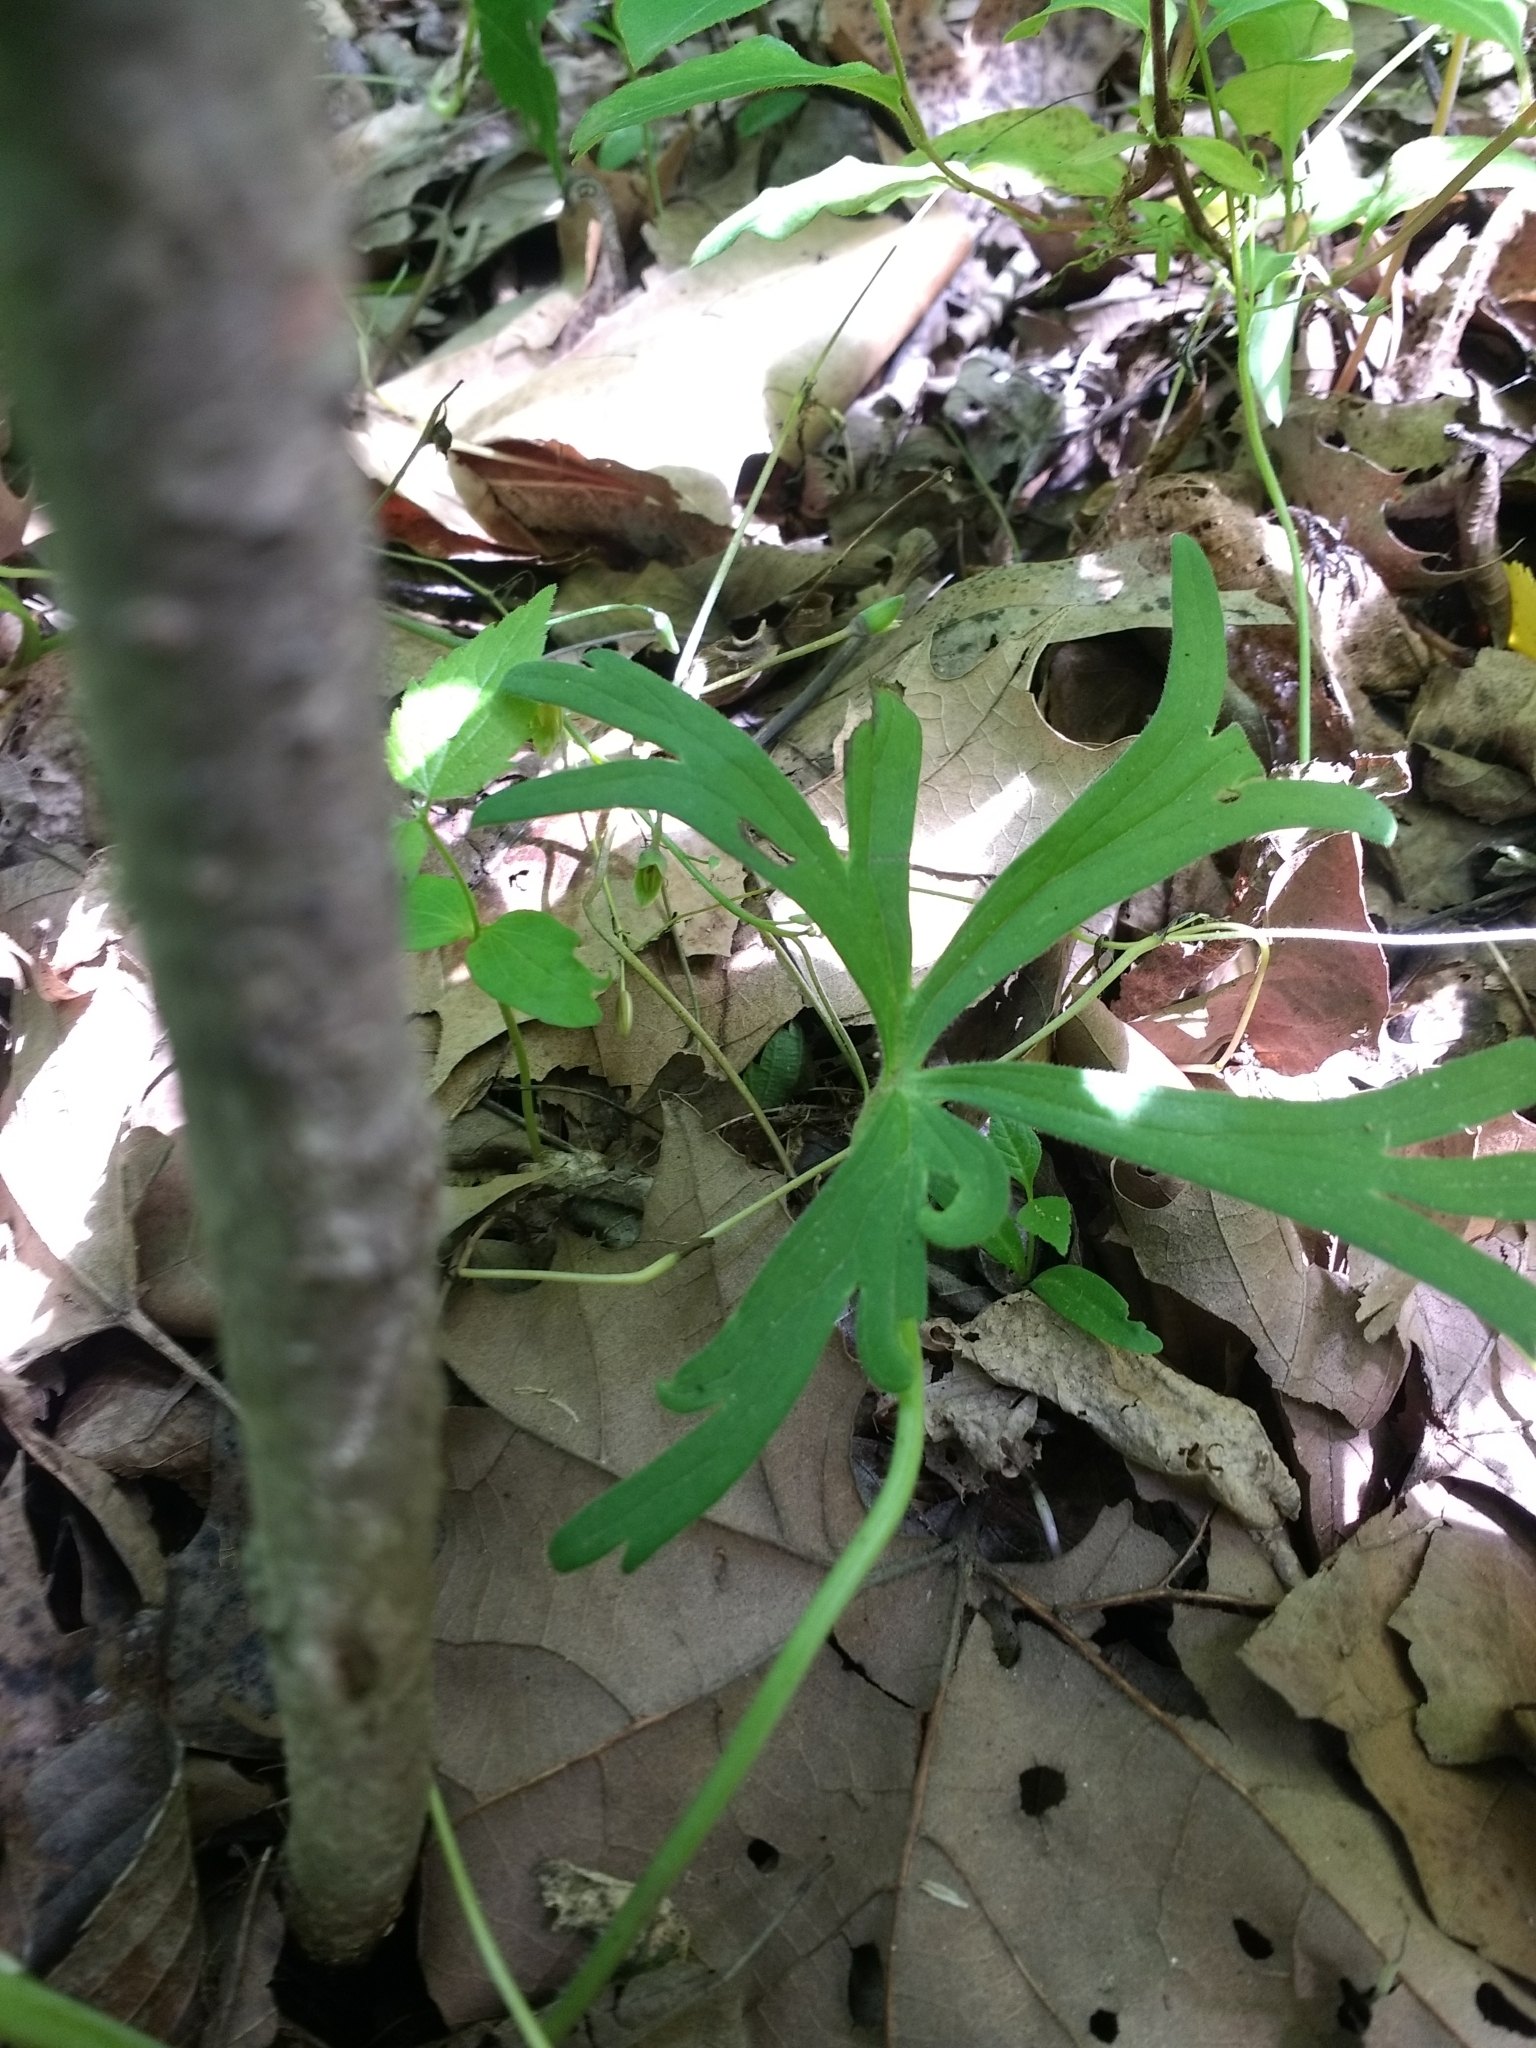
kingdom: Plantae
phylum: Tracheophyta
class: Magnoliopsida
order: Ranunculales
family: Ranunculaceae
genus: Delphinium
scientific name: Delphinium tricorne
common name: Dwarf larkspur
